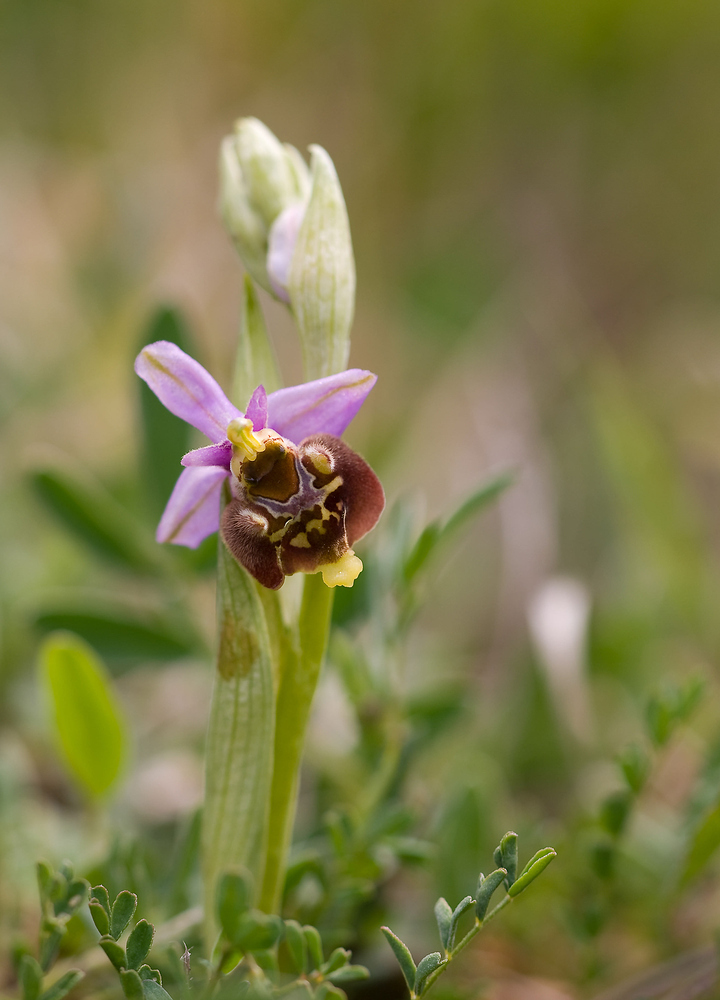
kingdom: Plantae
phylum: Tracheophyta
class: Liliopsida
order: Asparagales
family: Orchidaceae
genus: Ophrys
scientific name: Ophrys holosericea
